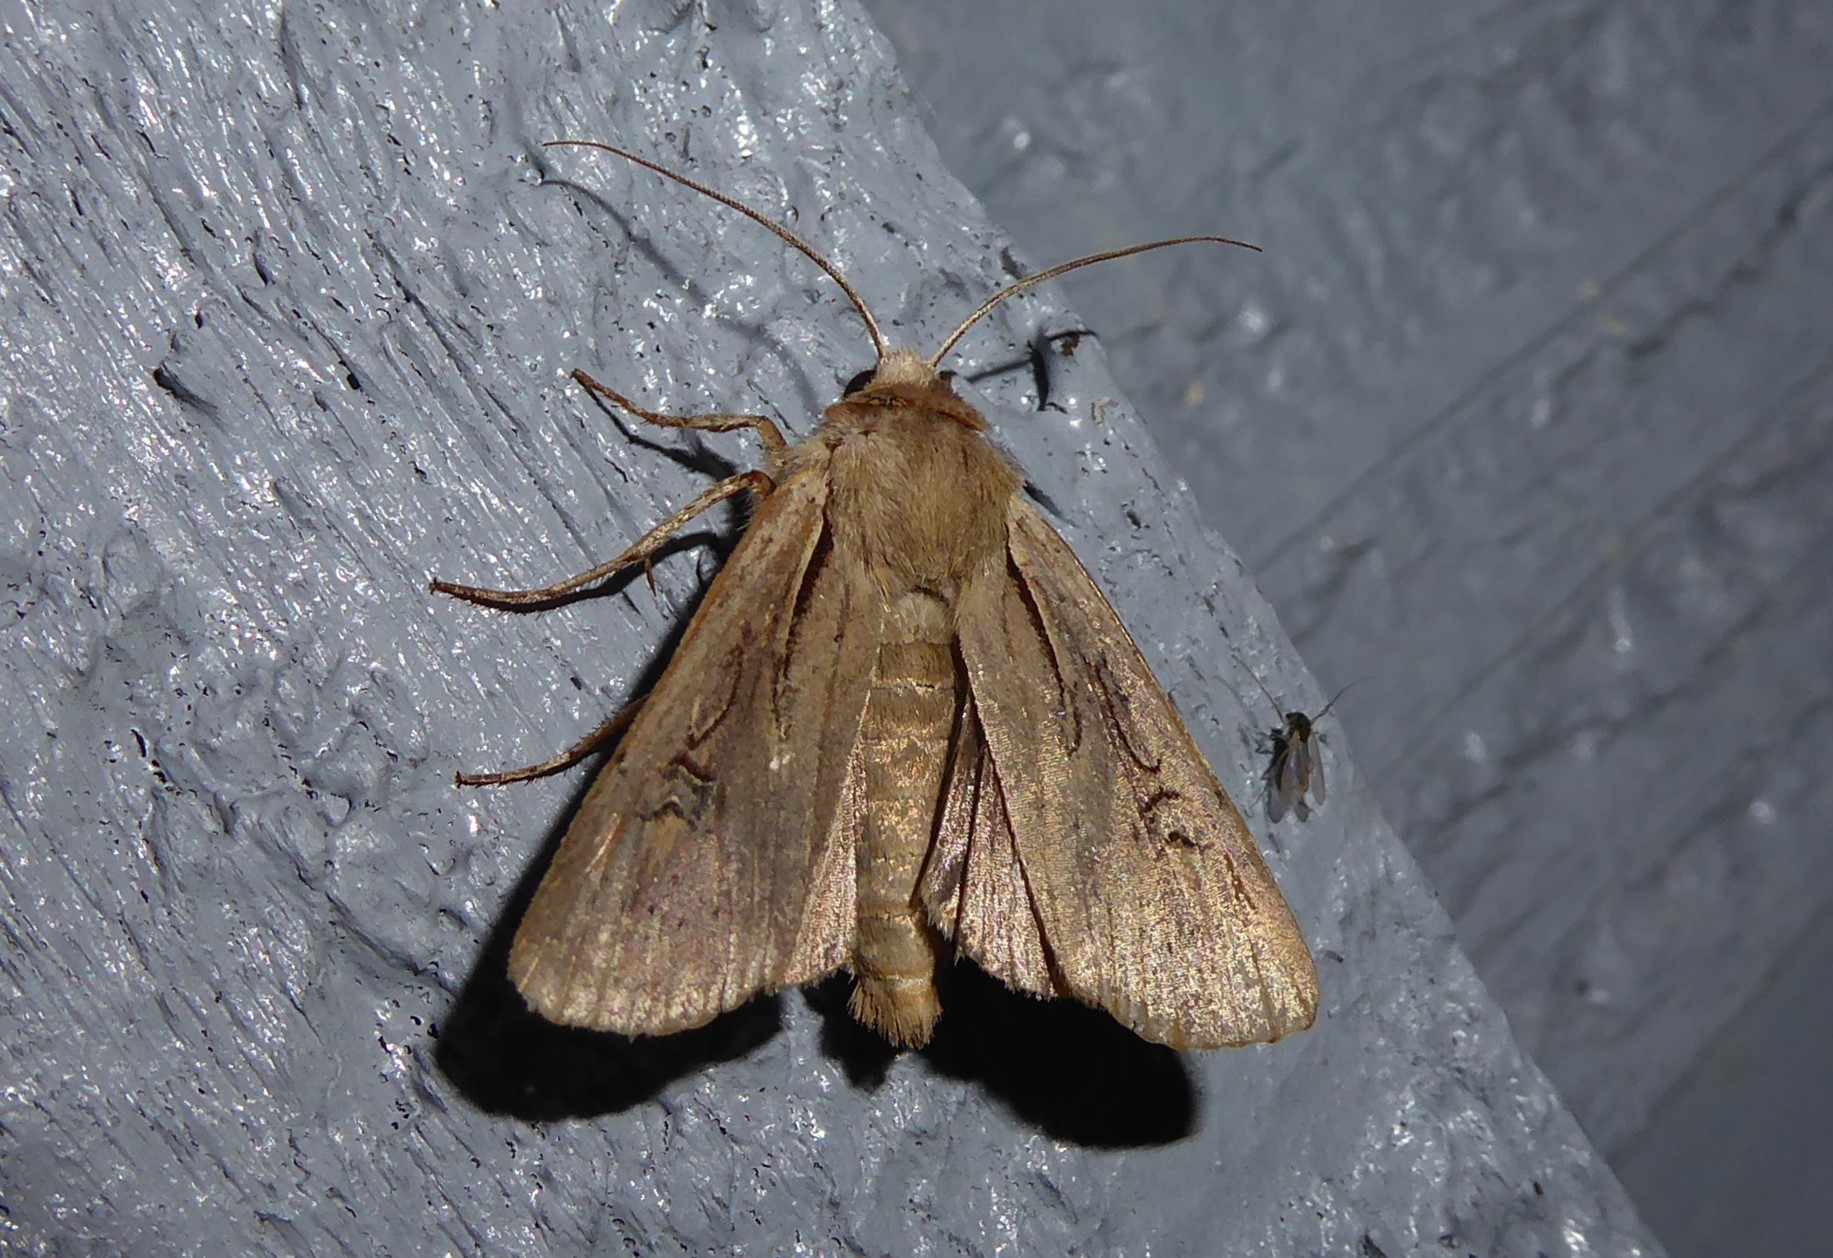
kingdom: Animalia
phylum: Arthropoda
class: Insecta
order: Lepidoptera
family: Noctuidae
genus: Ichneutica
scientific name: Ichneutica atristriga
